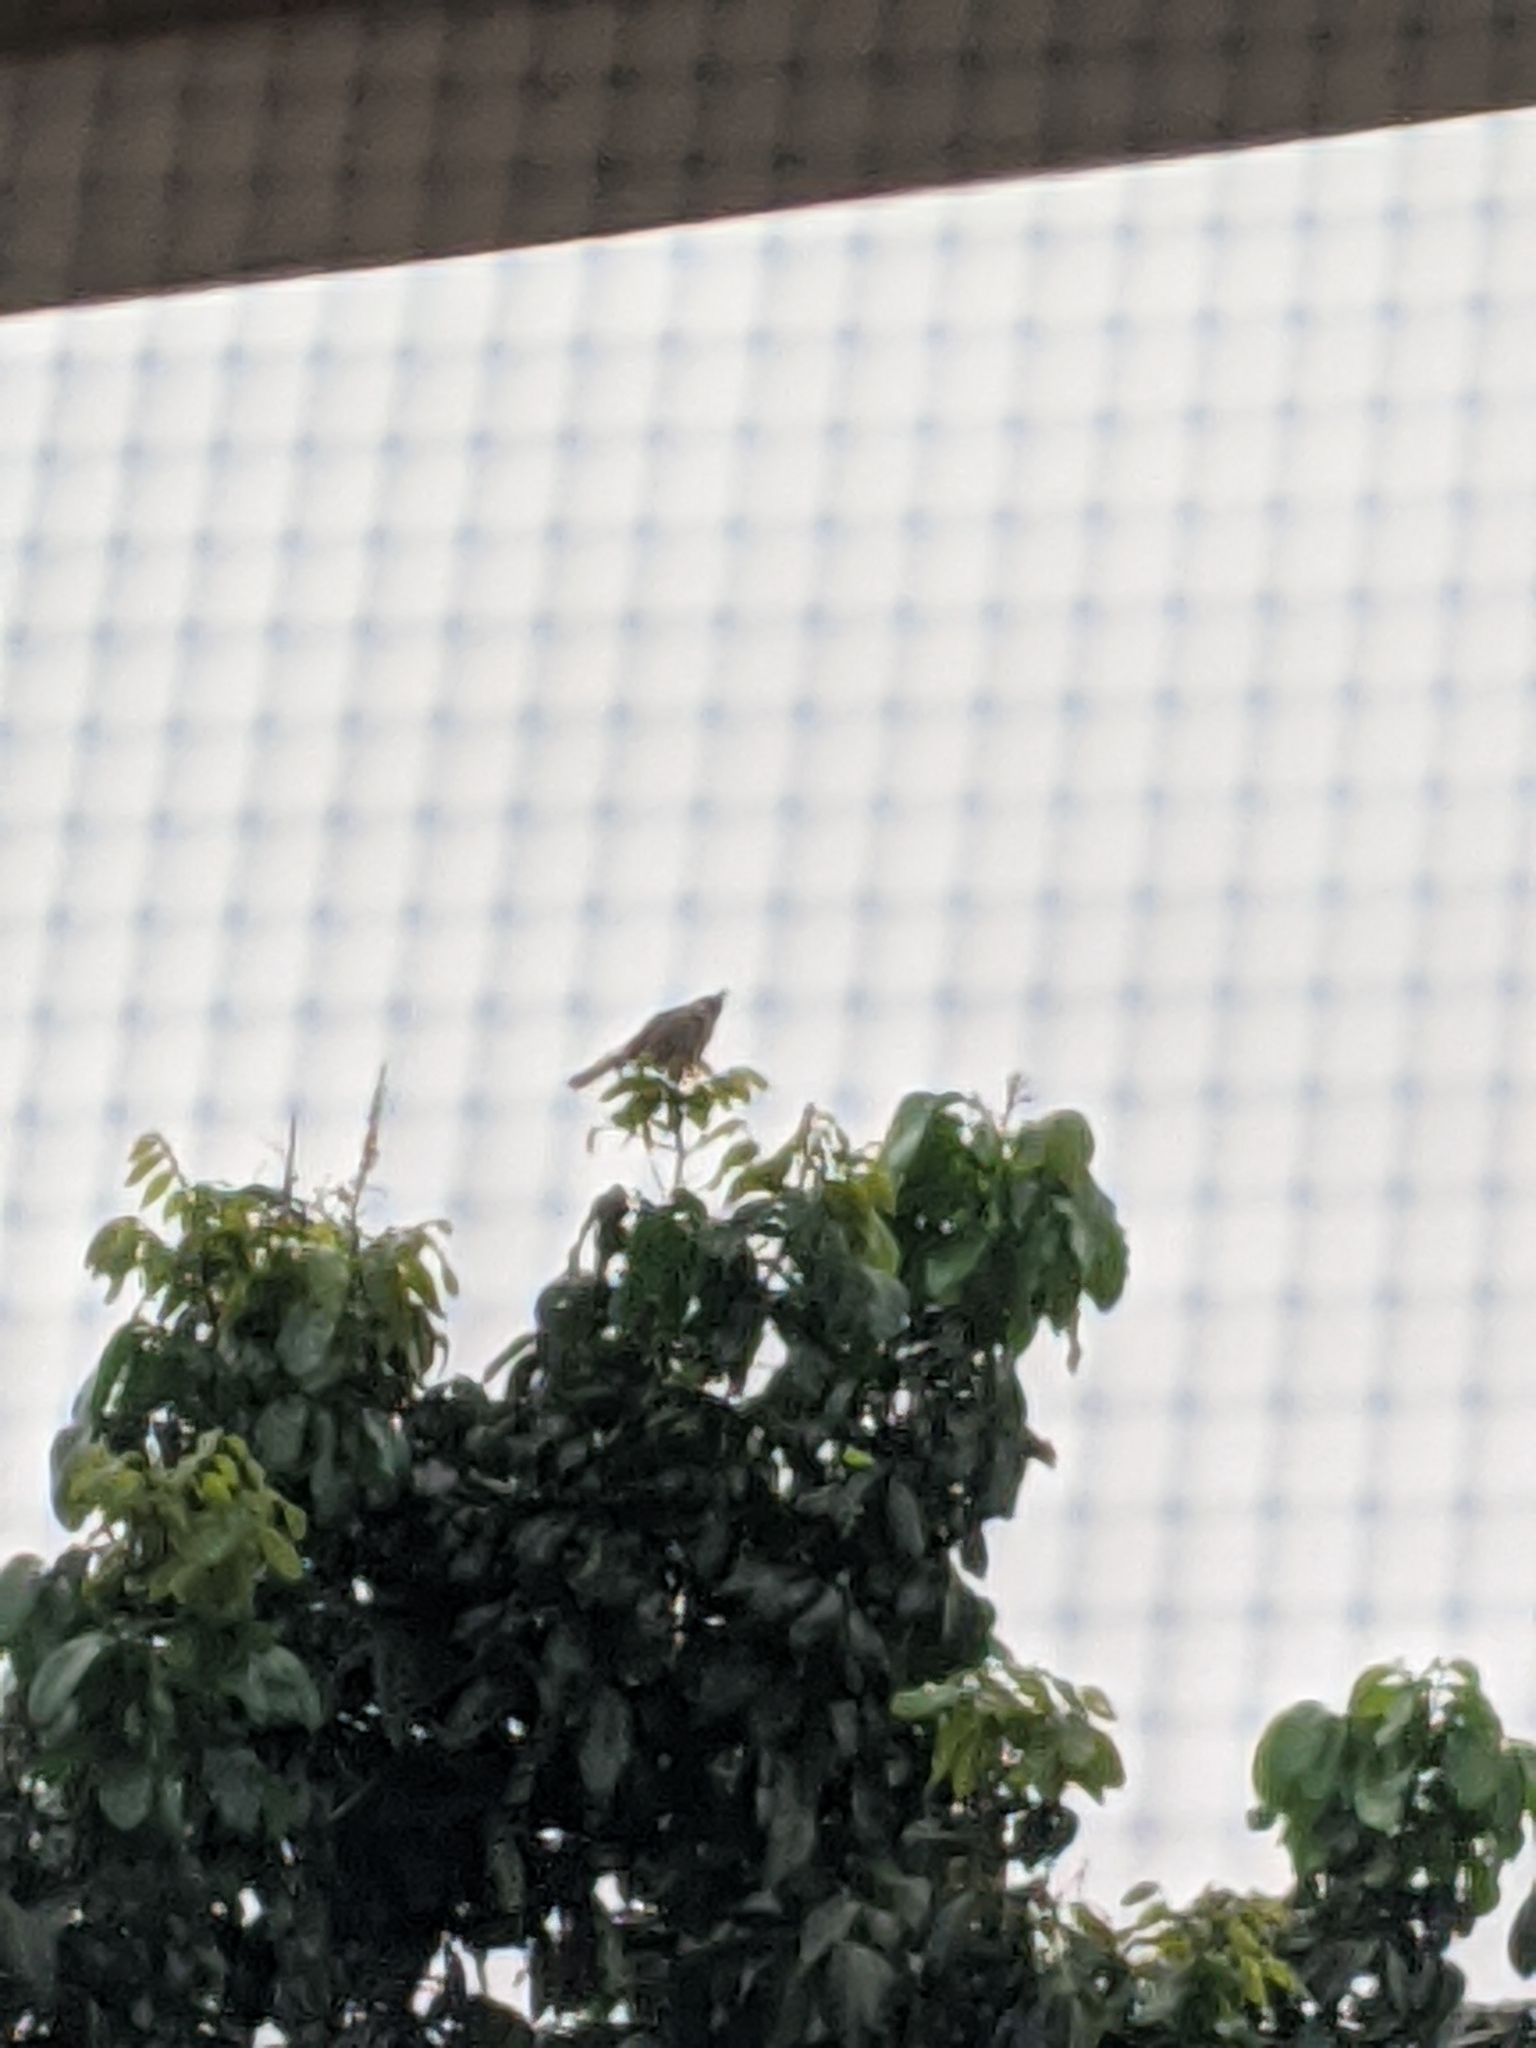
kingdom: Animalia
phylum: Chordata
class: Aves
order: Passeriformes
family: Pycnonotidae
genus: Pycnonotus
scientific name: Pycnonotus jocosus
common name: Red-whiskered bulbul
